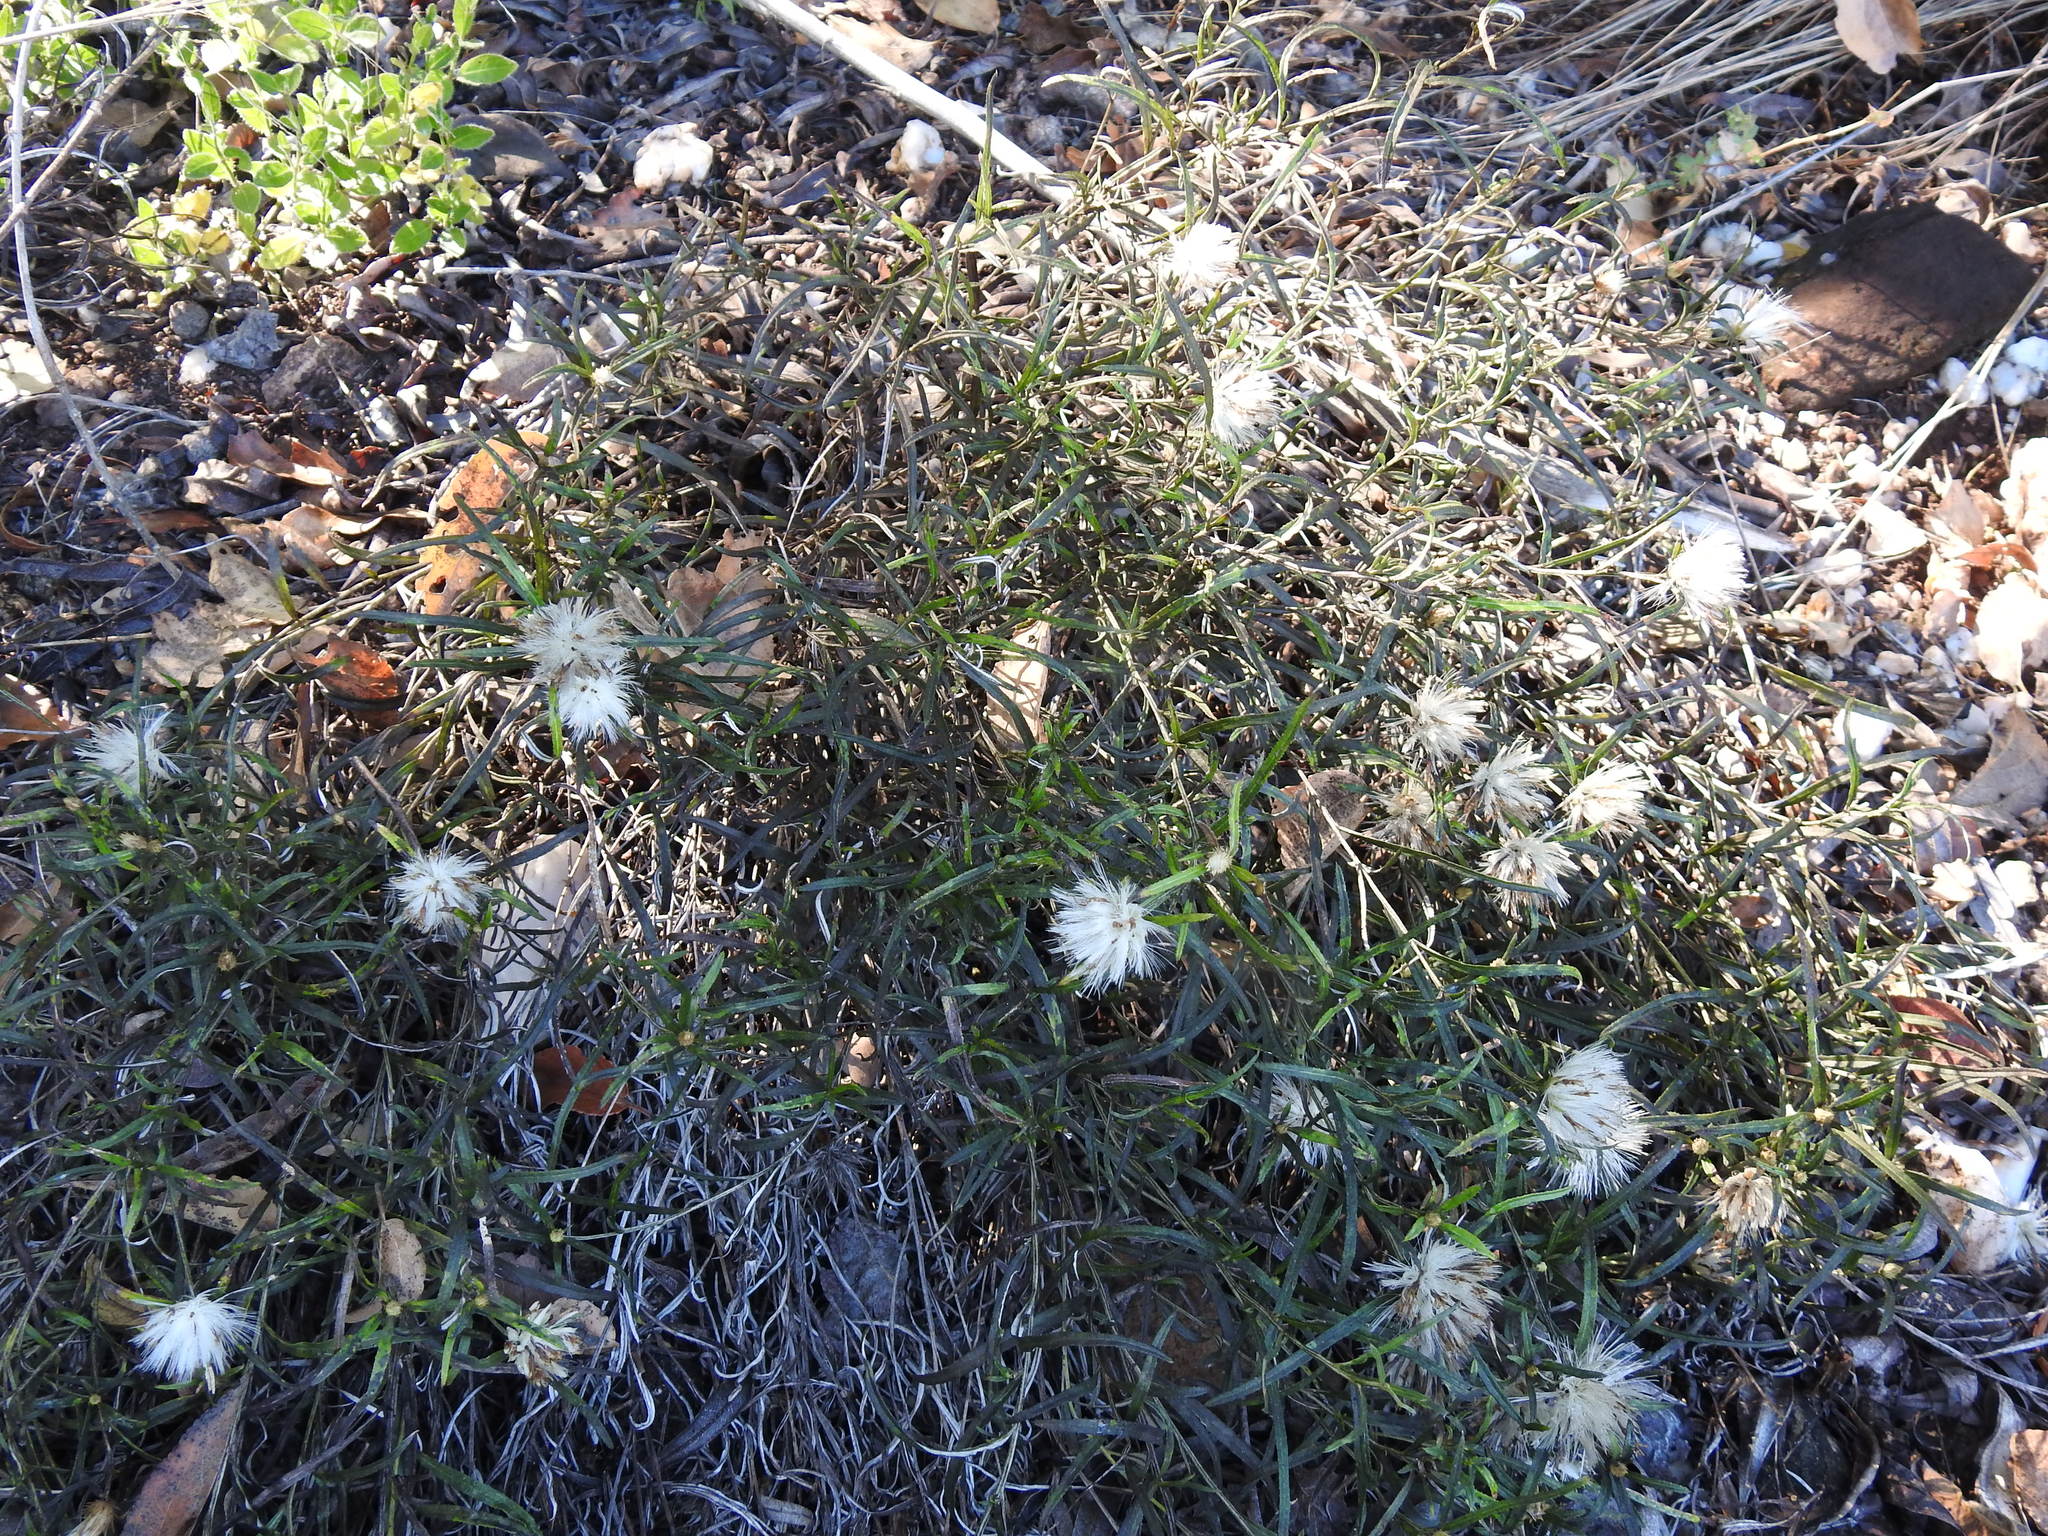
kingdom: Plantae
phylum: Tracheophyta
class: Magnoliopsida
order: Asterales
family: Asteraceae
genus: Dicoma
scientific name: Dicoma anomala
